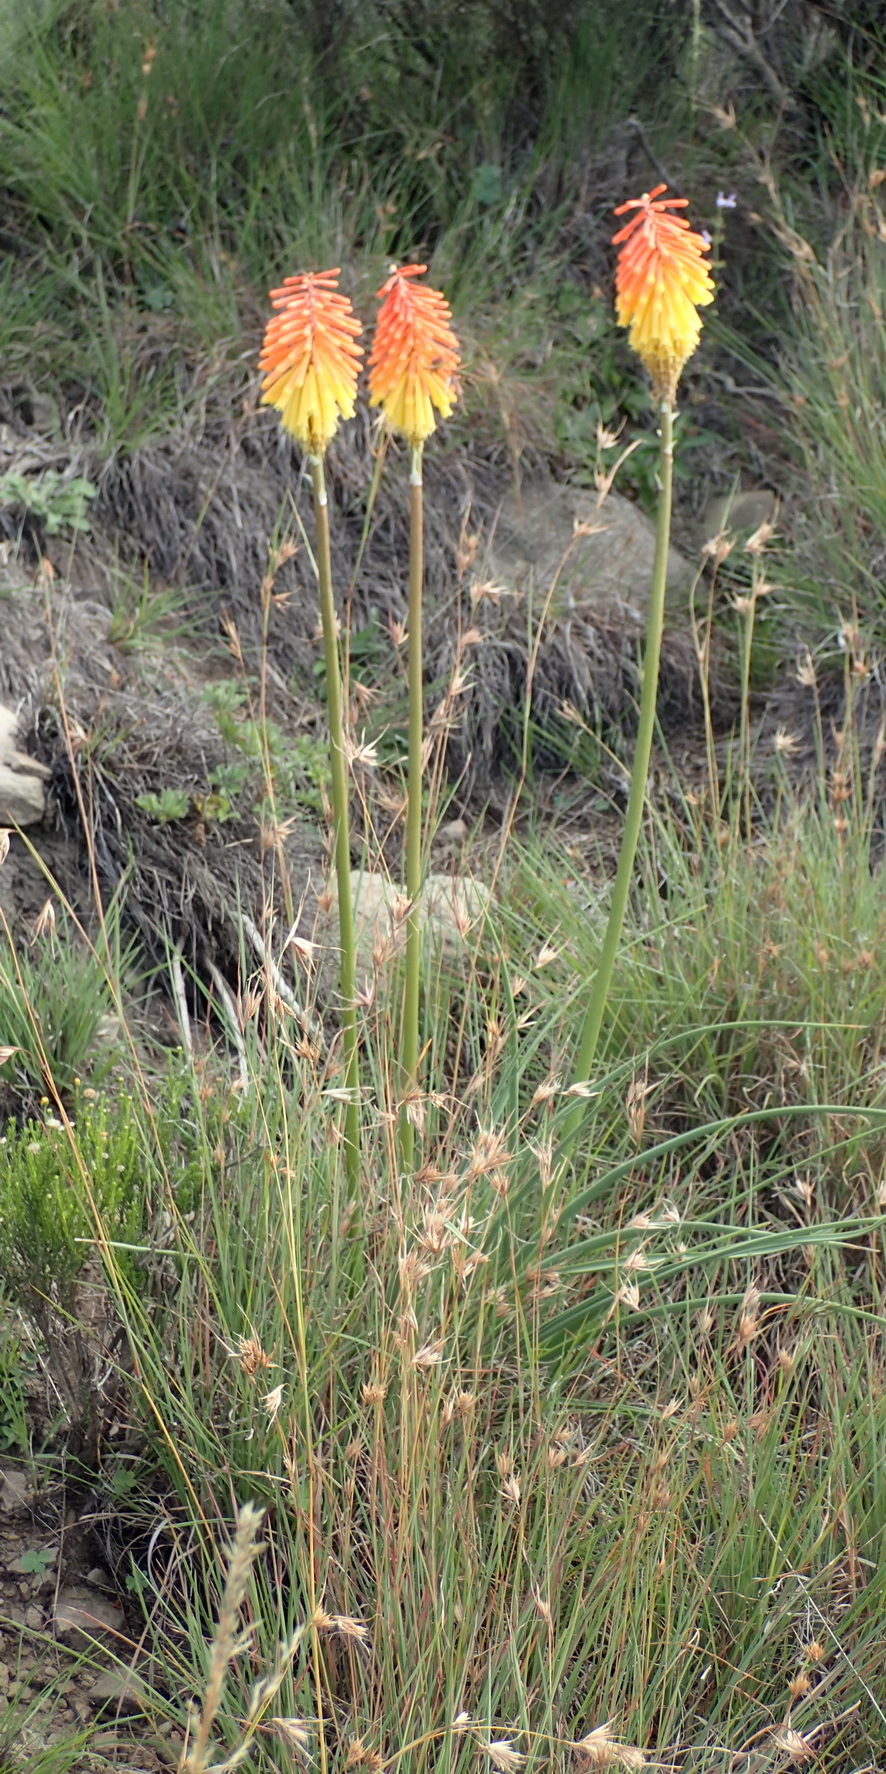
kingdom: Plantae
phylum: Tracheophyta
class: Liliopsida
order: Asparagales
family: Asphodelaceae
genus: Kniphofia
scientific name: Kniphofia stricta
